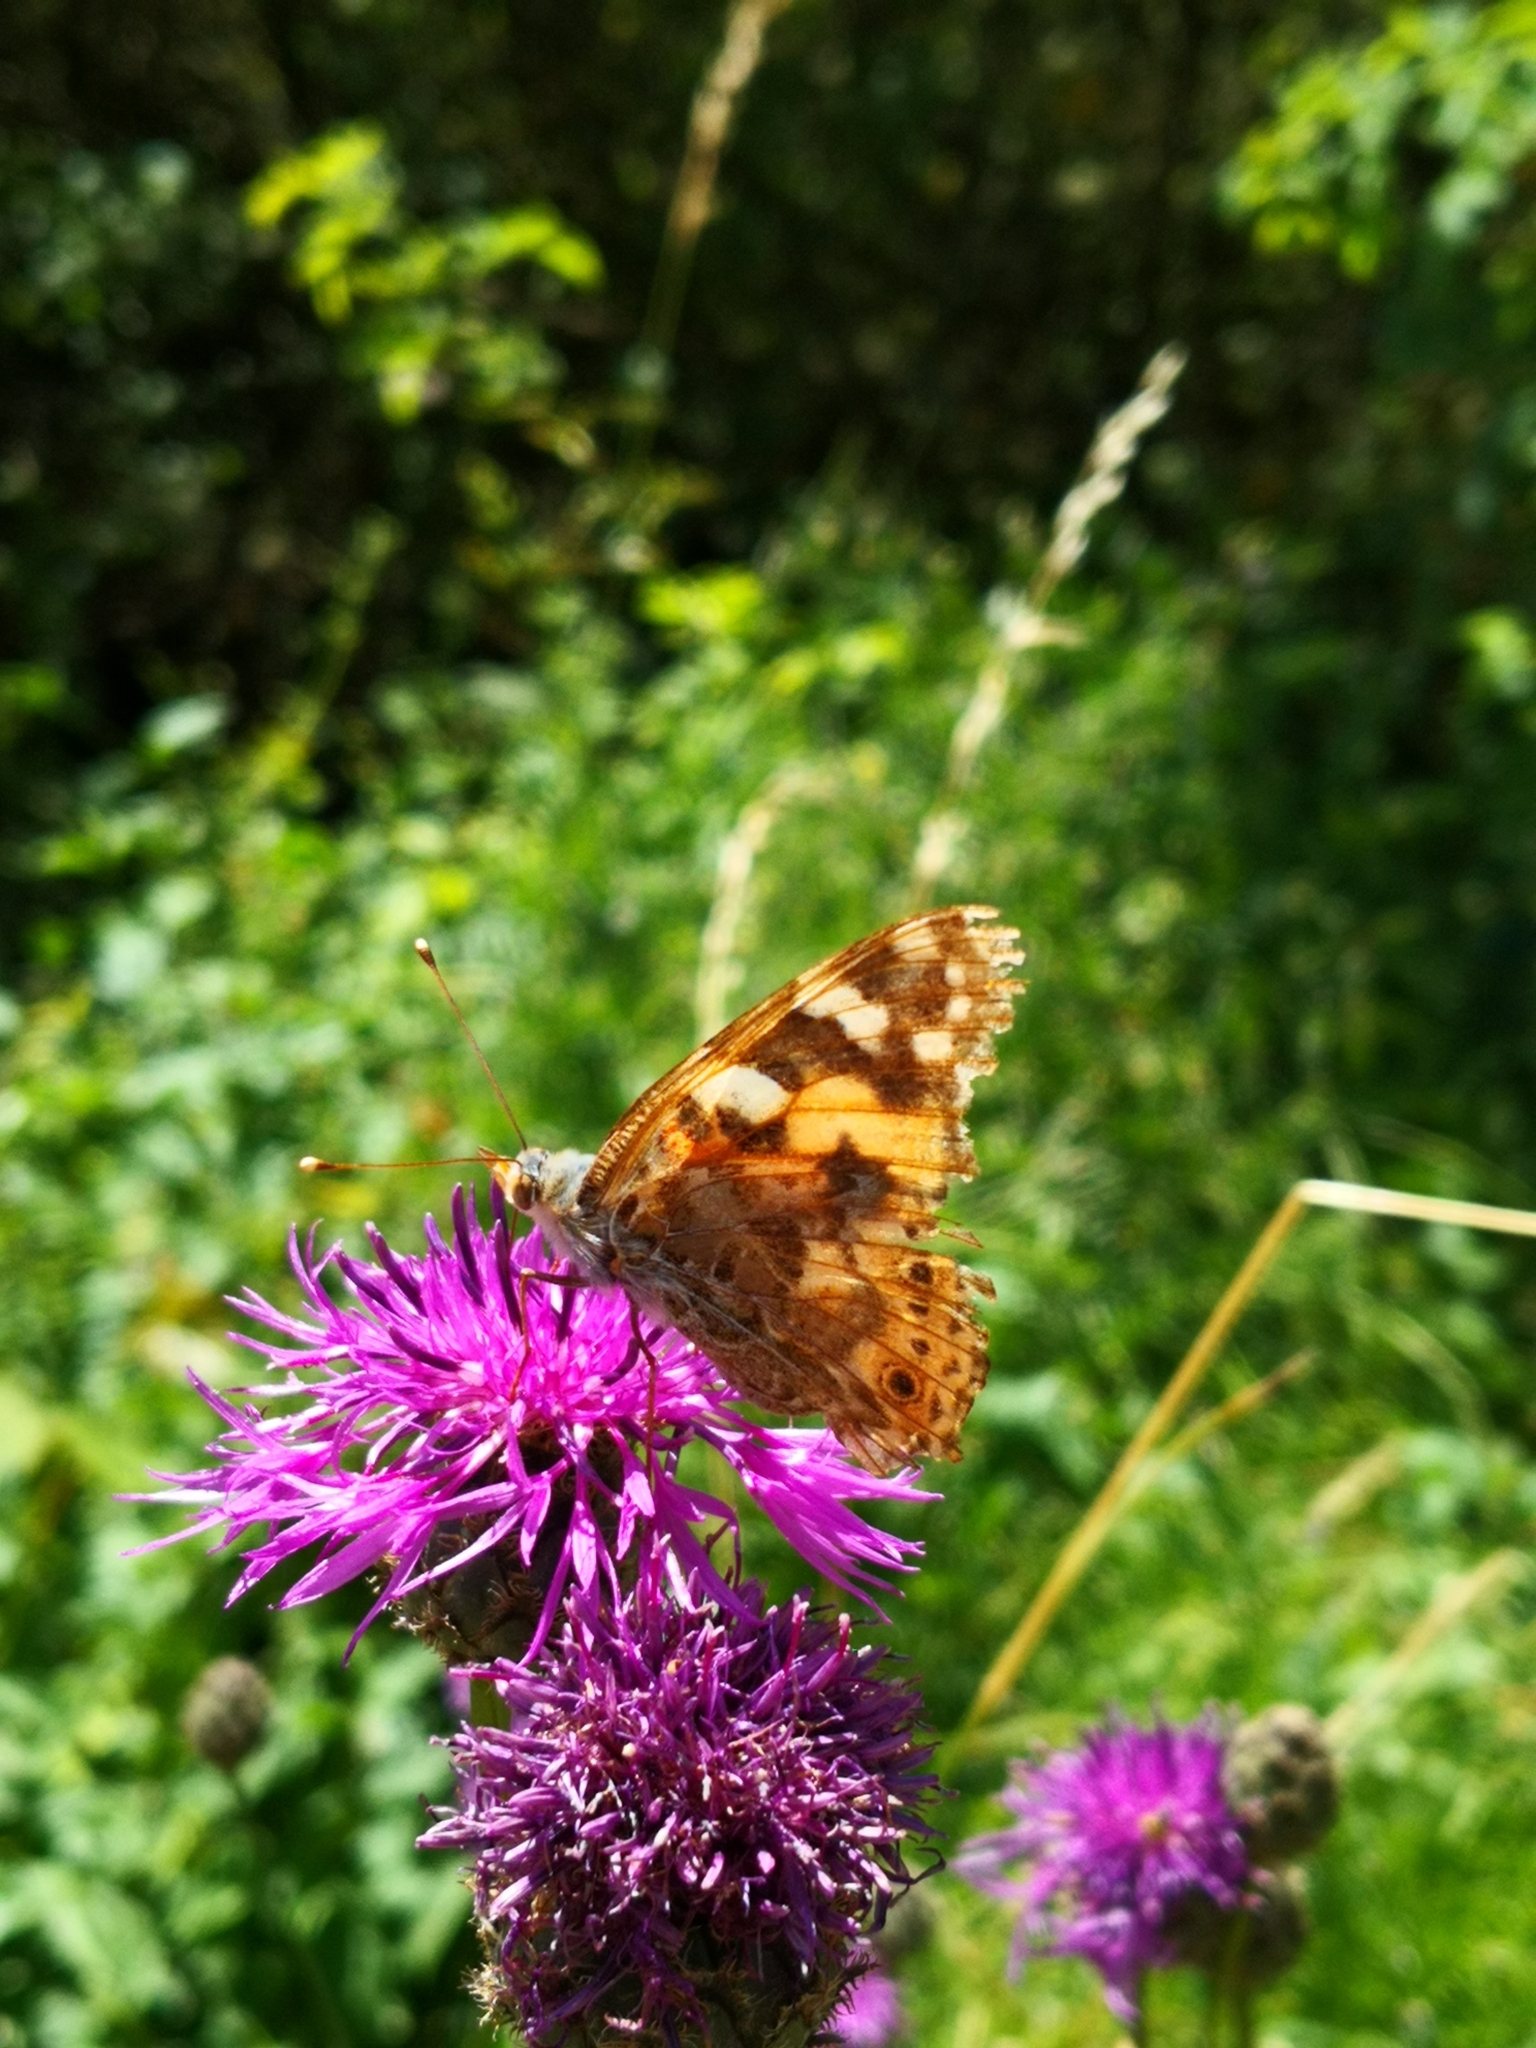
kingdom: Animalia
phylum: Arthropoda
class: Insecta
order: Lepidoptera
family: Nymphalidae
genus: Vanessa
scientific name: Vanessa cardui
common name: Painted lady
